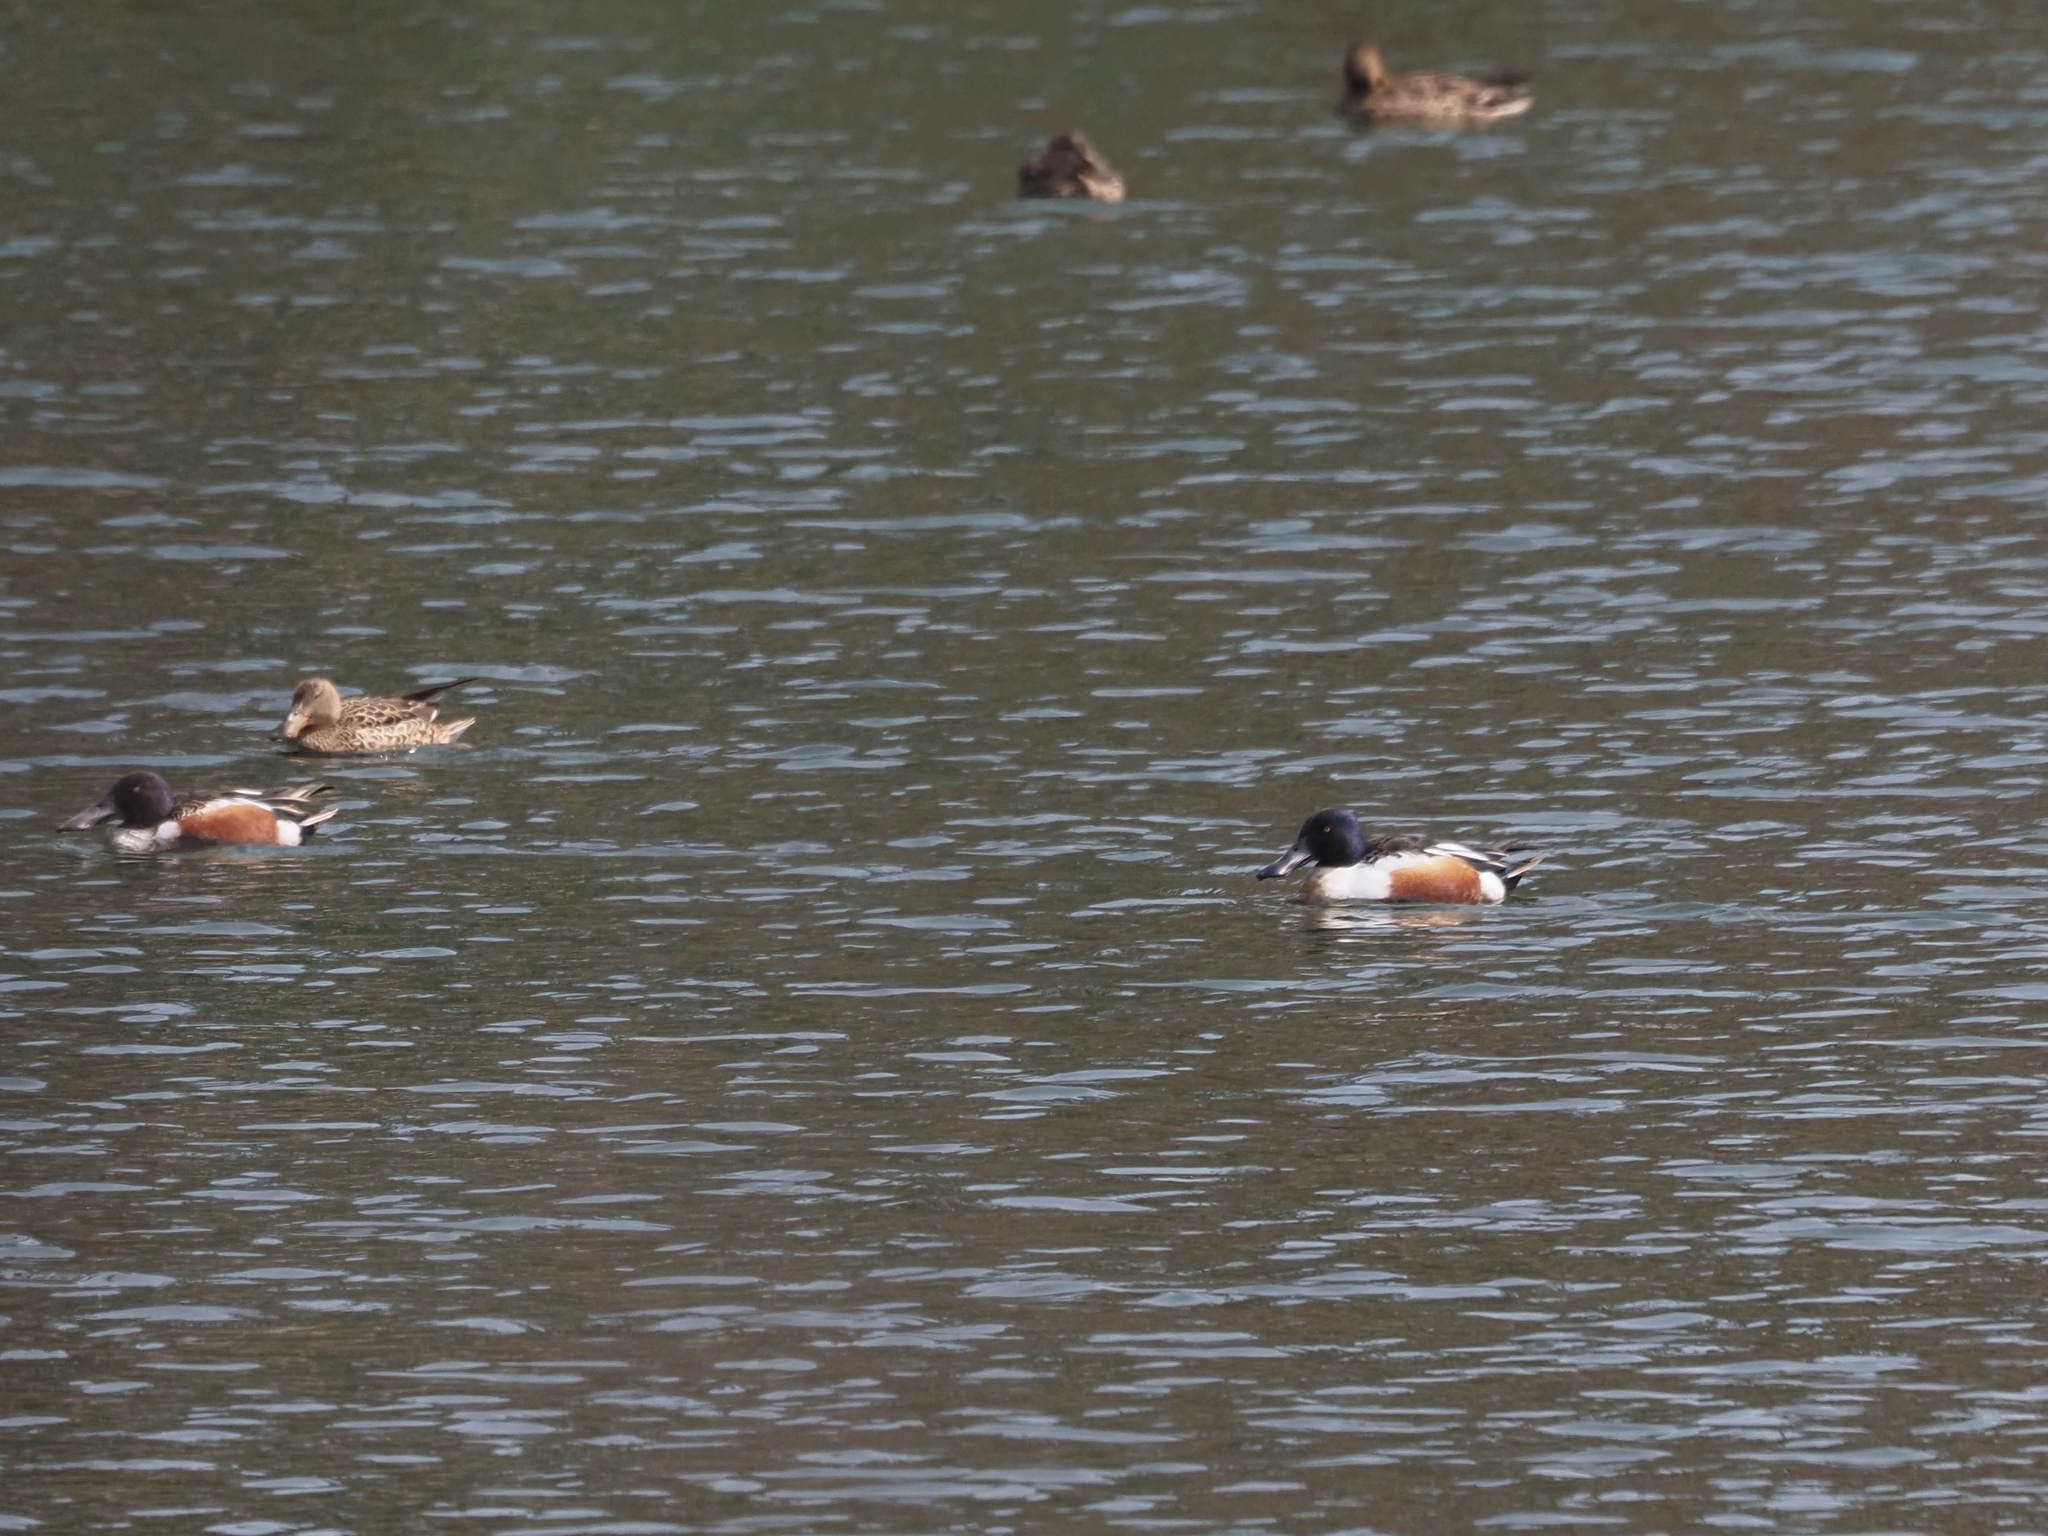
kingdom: Animalia
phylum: Chordata
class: Aves
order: Anseriformes
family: Anatidae
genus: Spatula
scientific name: Spatula clypeata
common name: Northern shoveler
